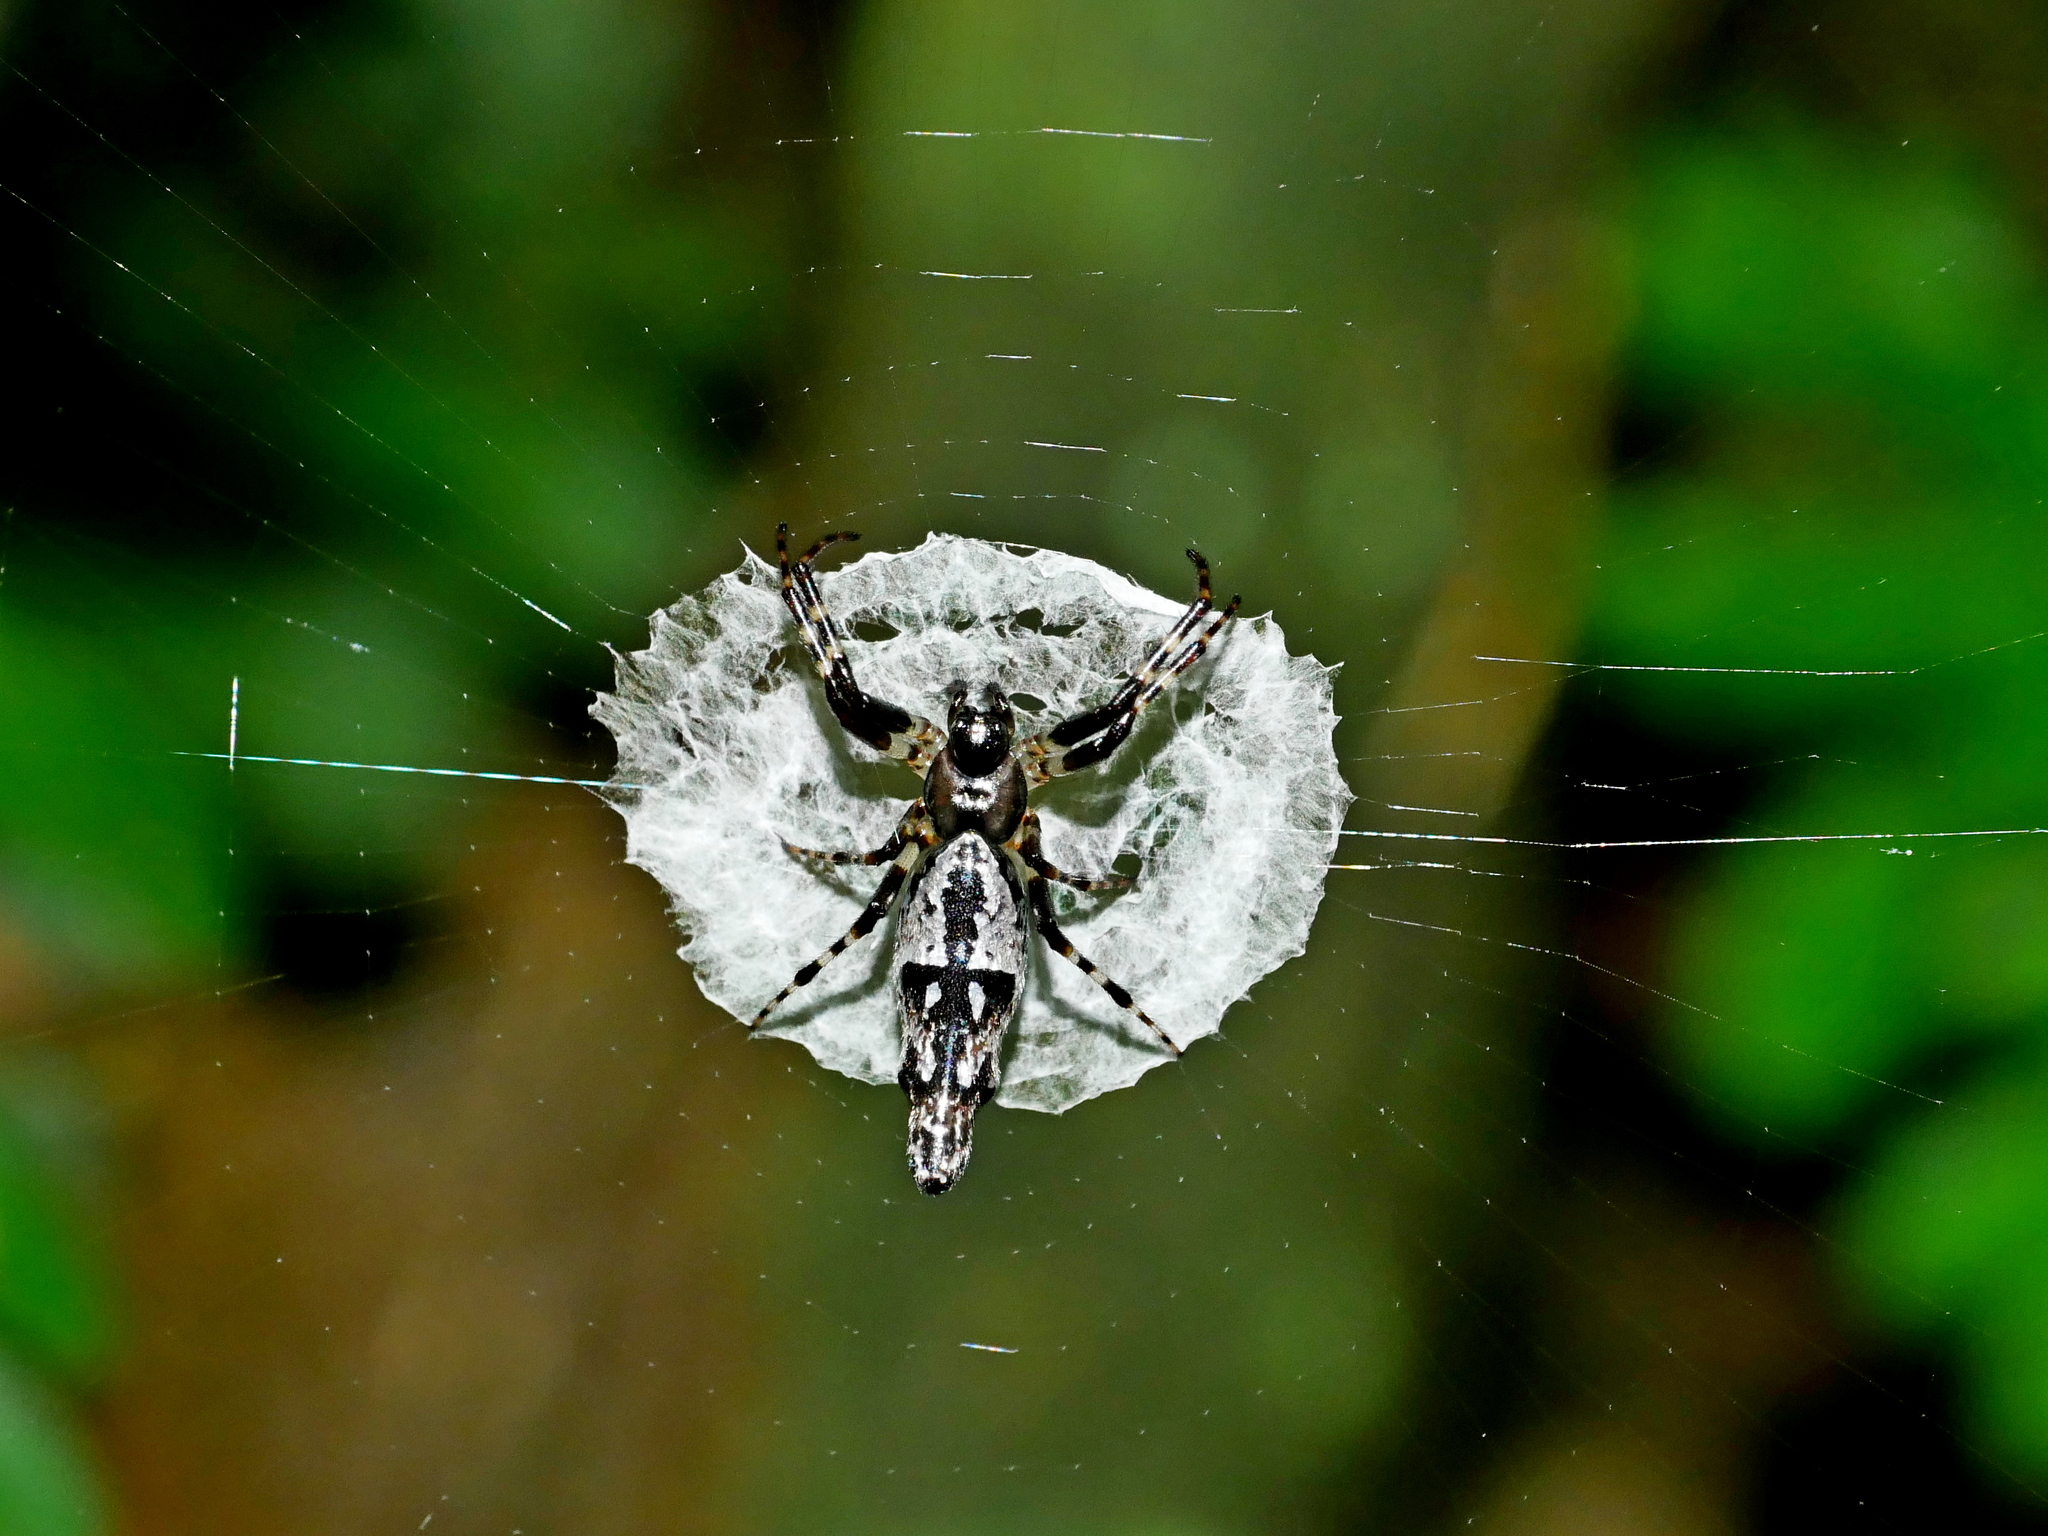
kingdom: Animalia
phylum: Arthropoda
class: Arachnida
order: Araneae
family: Araneidae
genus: Cyclosa
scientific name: Cyclosa ginnaga
